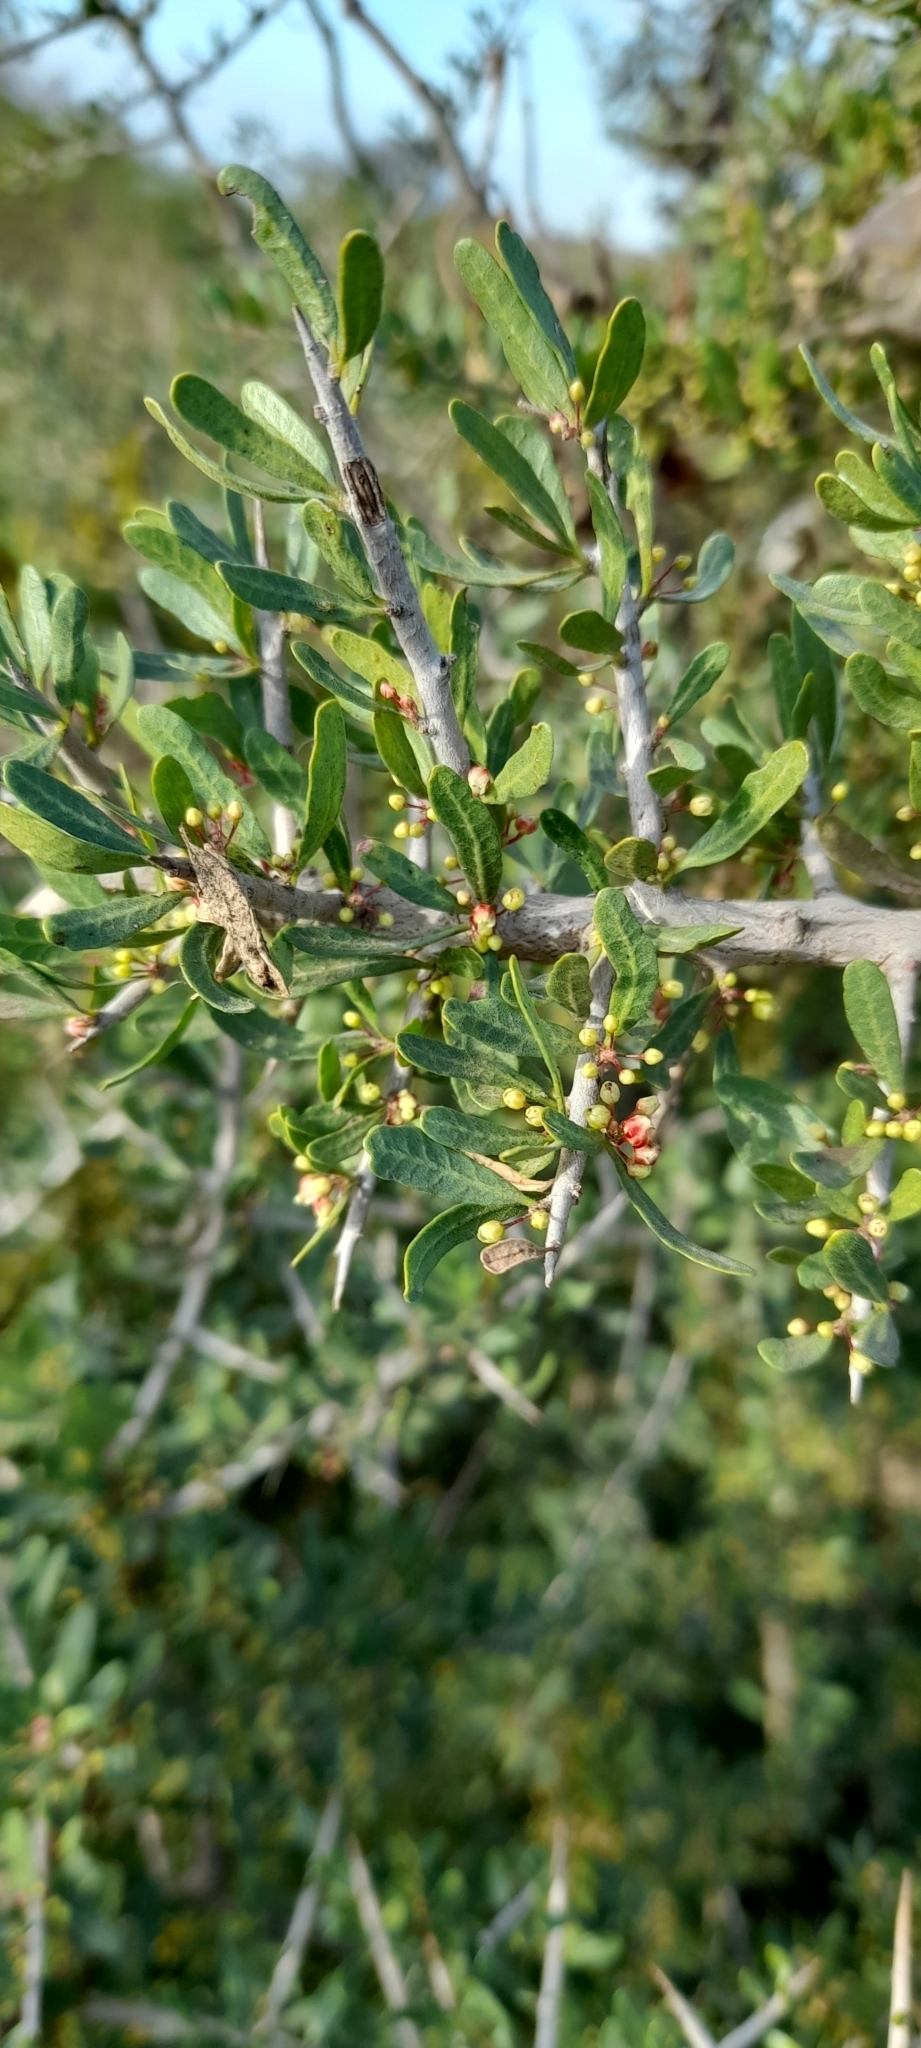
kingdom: Plantae
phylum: Tracheophyta
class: Magnoliopsida
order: Sapindales
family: Anacardiaceae
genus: Schinus
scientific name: Schinus longifolia
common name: Longleaf peppertree
